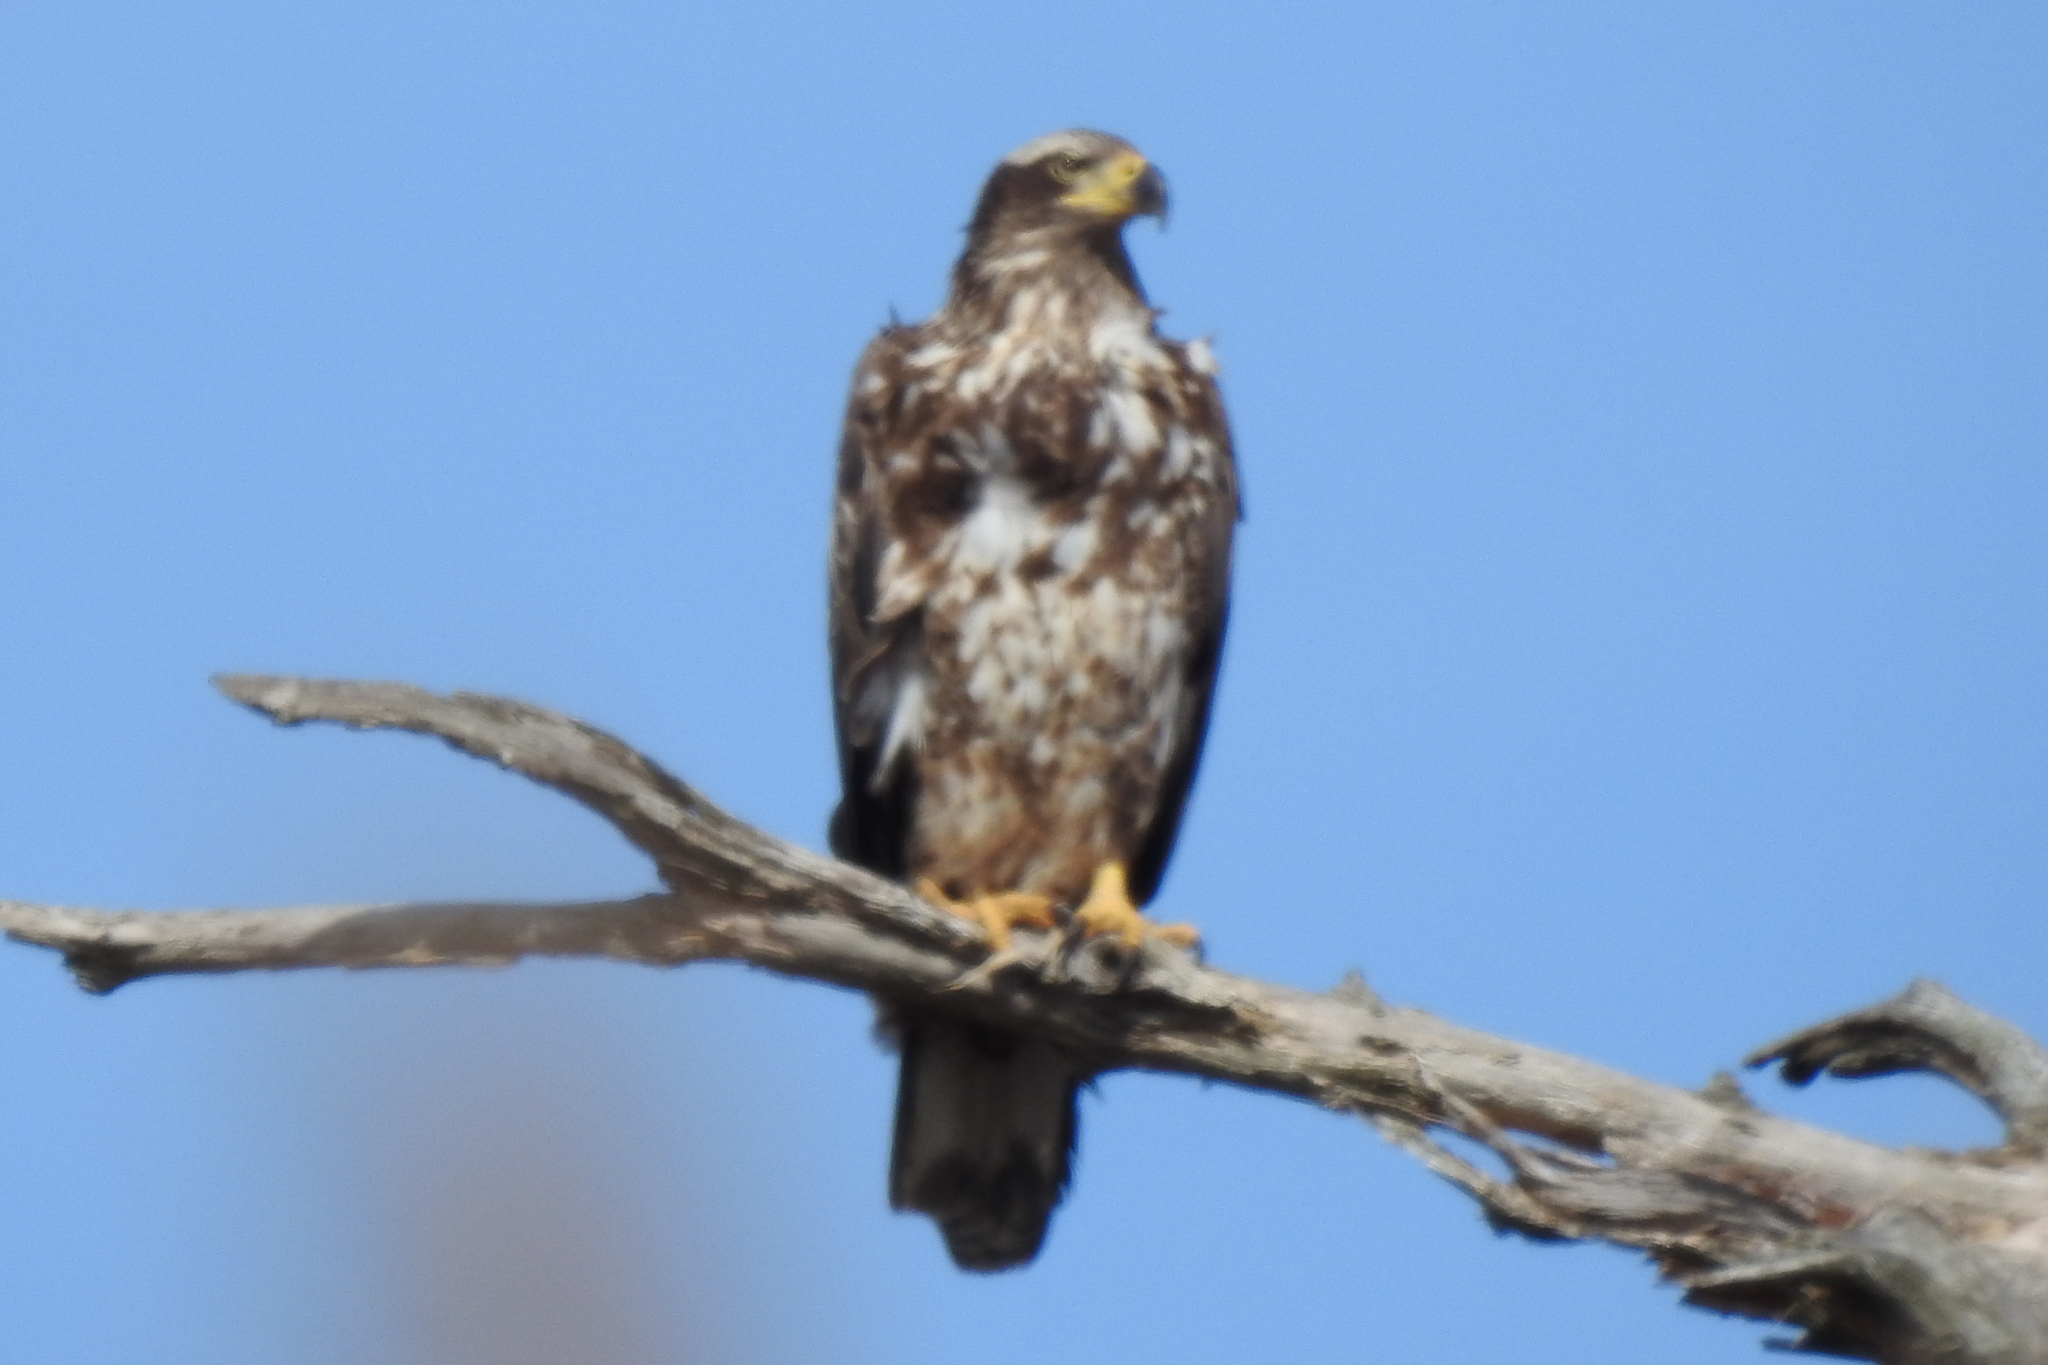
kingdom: Animalia
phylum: Chordata
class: Aves
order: Accipitriformes
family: Accipitridae
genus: Haliaeetus
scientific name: Haliaeetus leucocephalus
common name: Bald eagle
